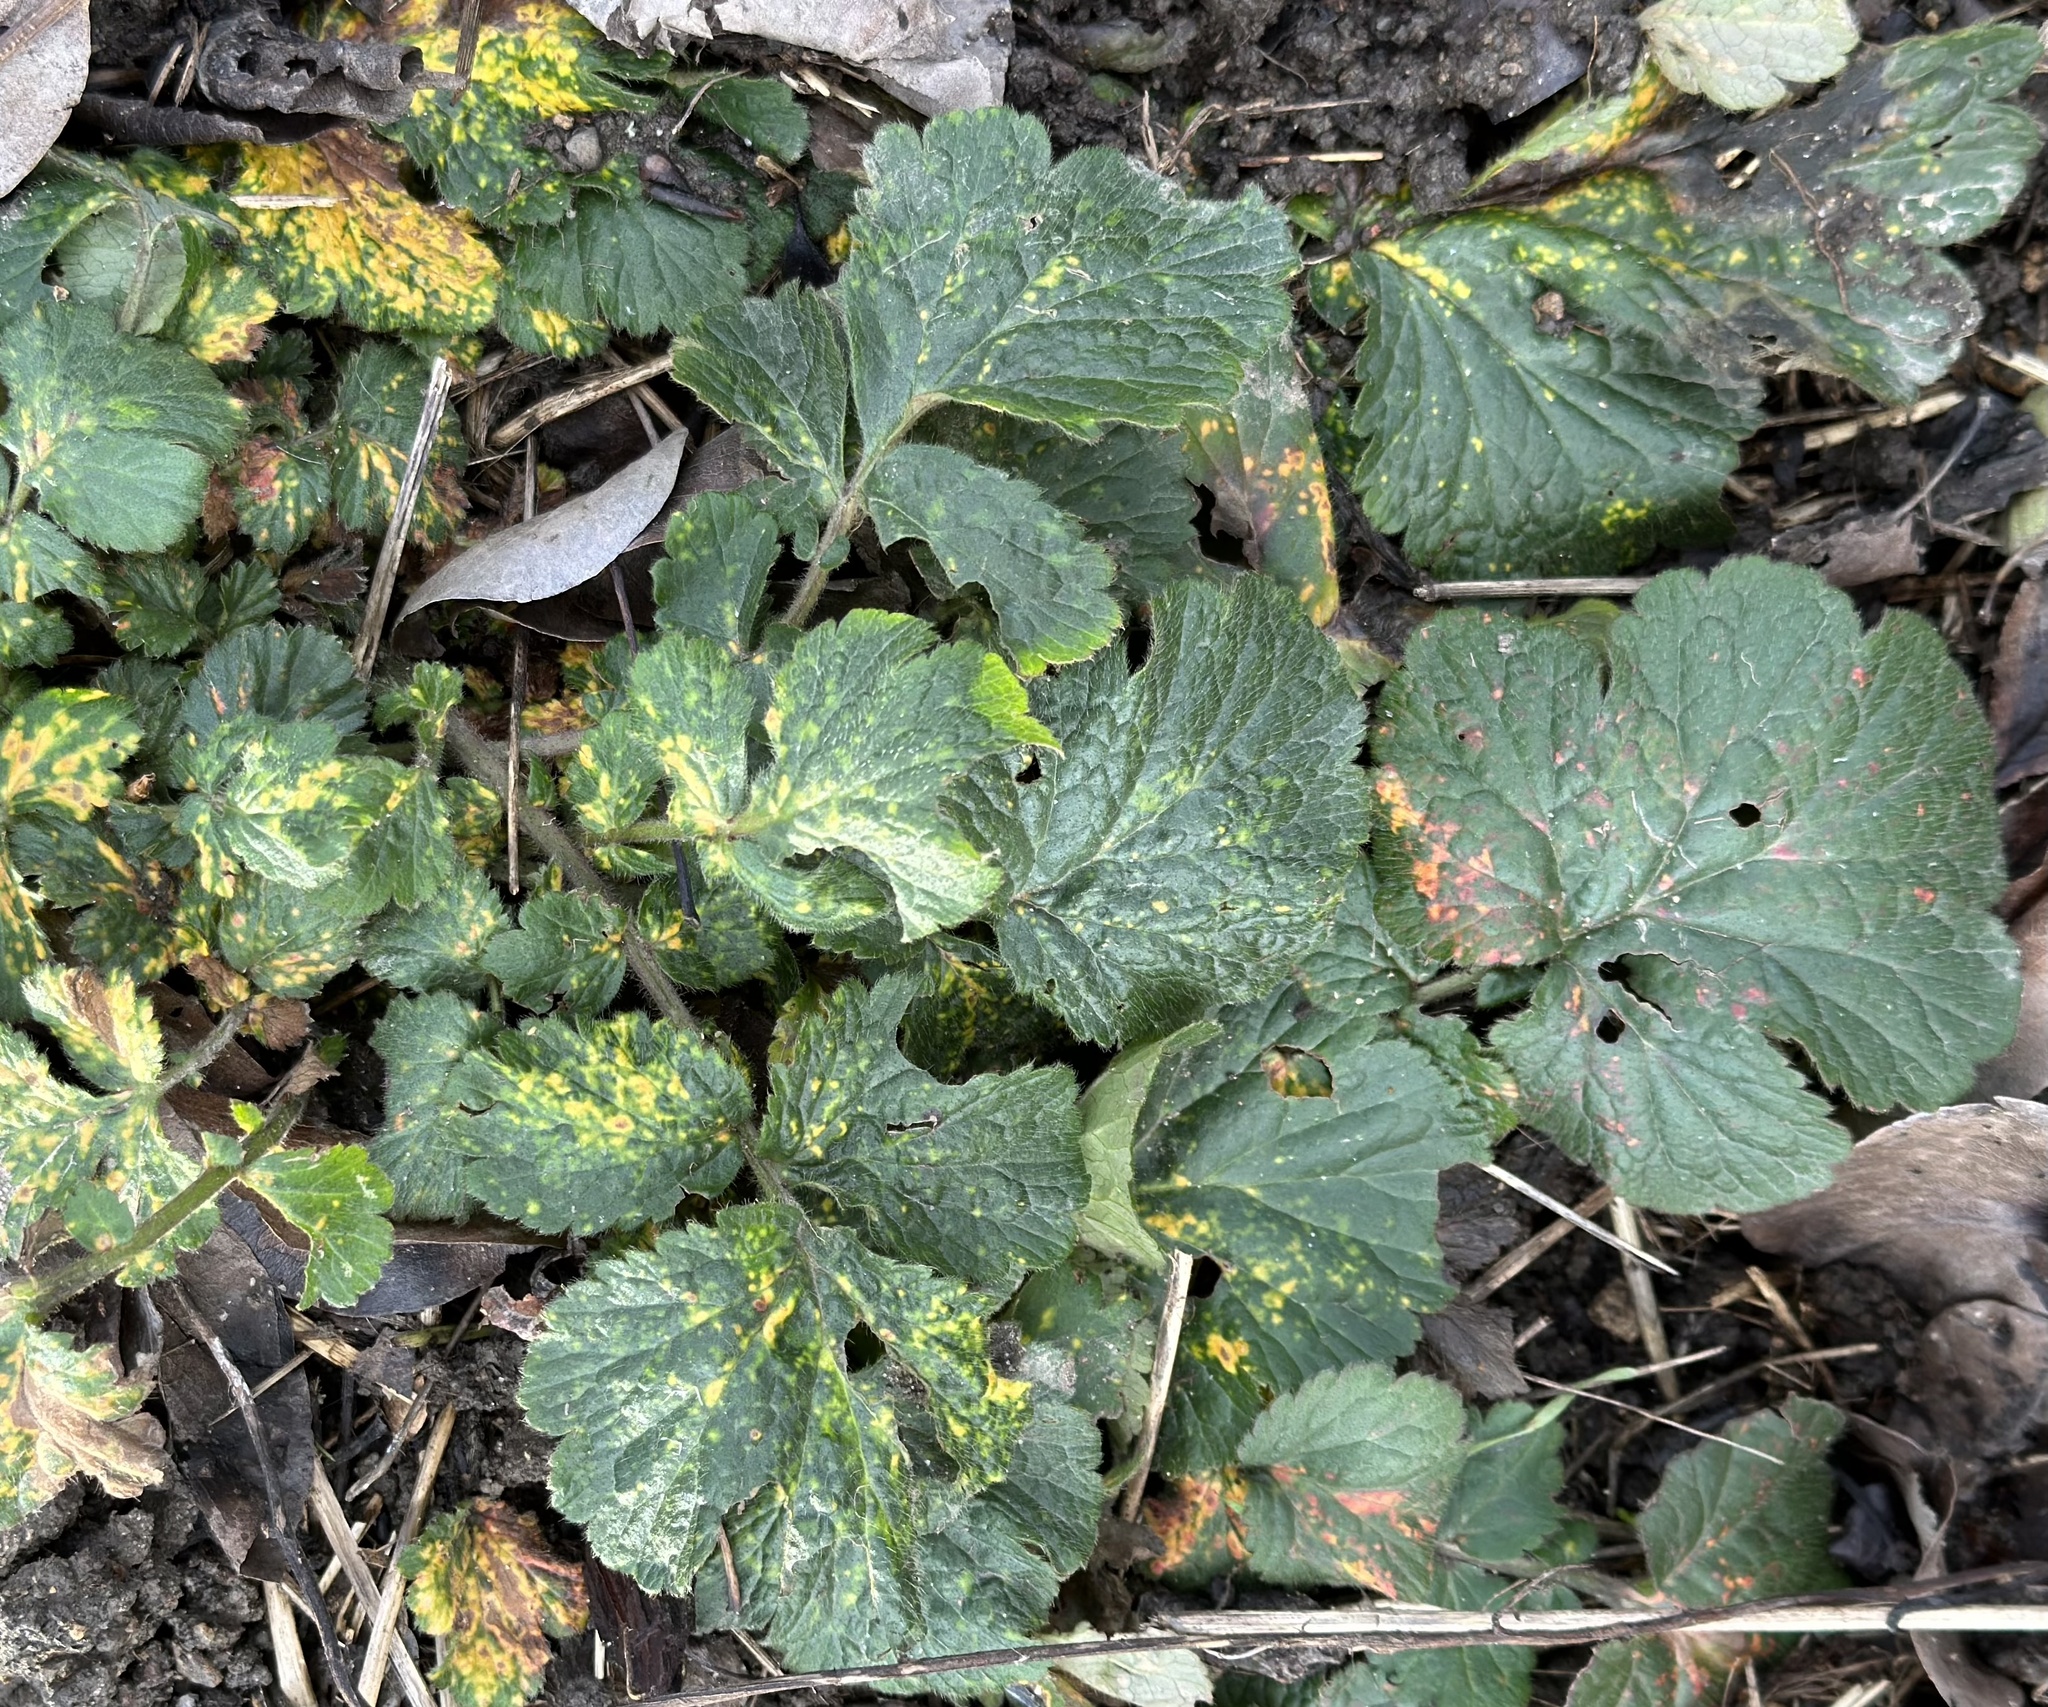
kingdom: Plantae
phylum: Tracheophyta
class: Magnoliopsida
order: Rosales
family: Rosaceae
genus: Geum
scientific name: Geum urbanum
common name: Wood avens
